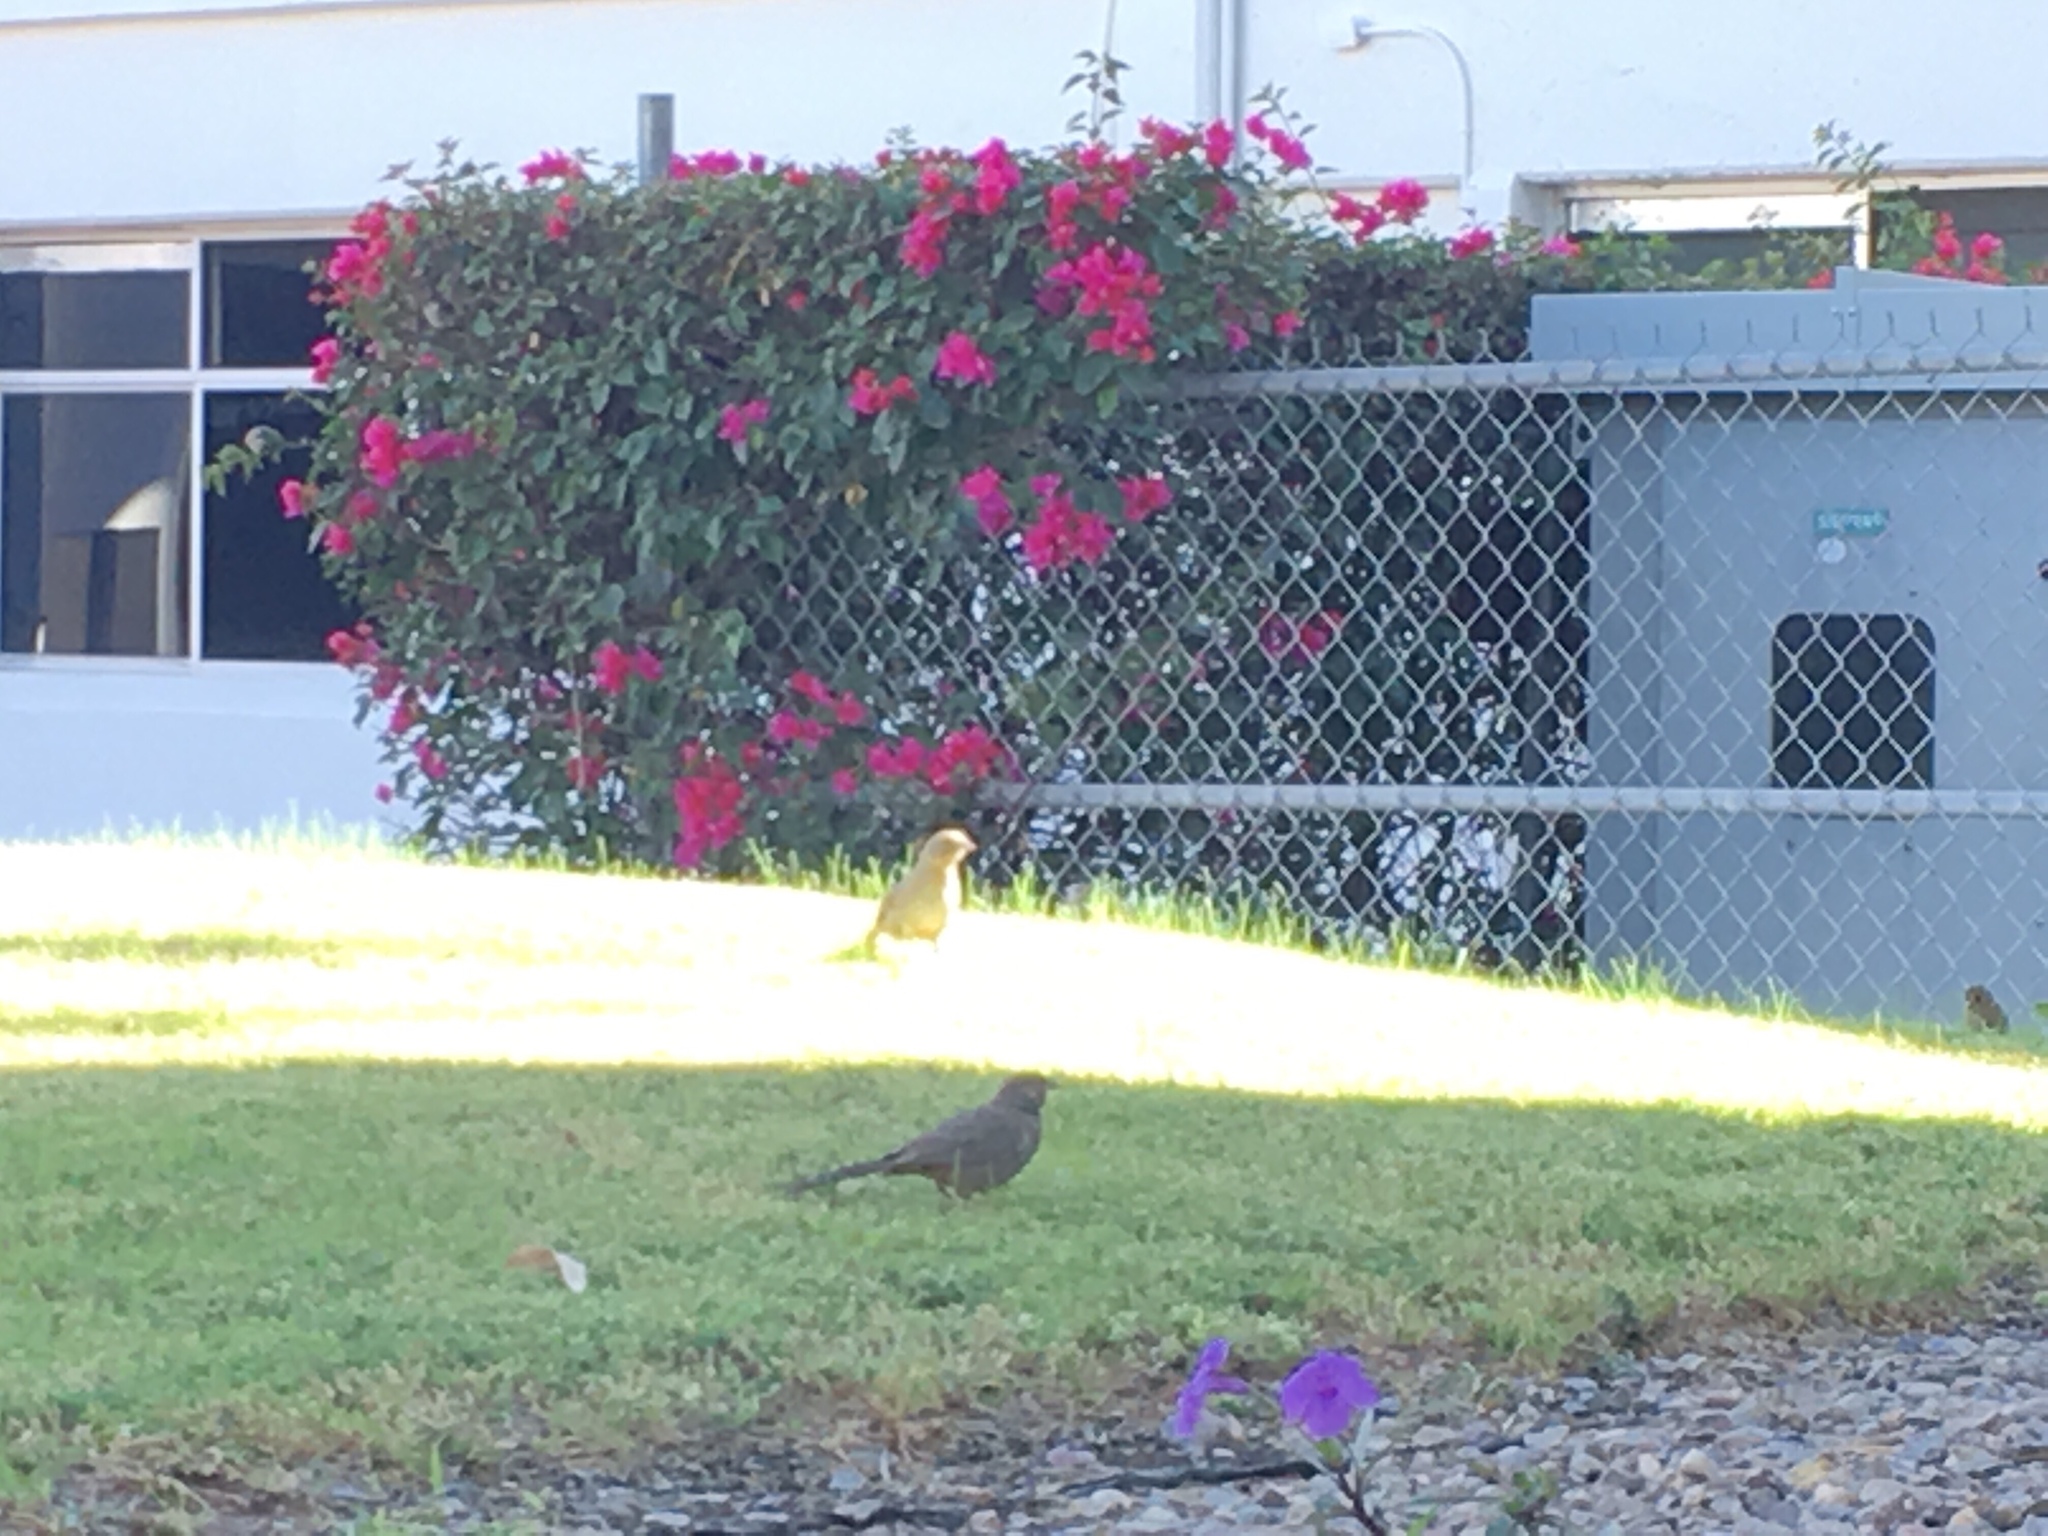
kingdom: Animalia
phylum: Chordata
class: Aves
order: Passeriformes
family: Passerellidae
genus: Melozone
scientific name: Melozone fusca
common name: Canyon towhee
